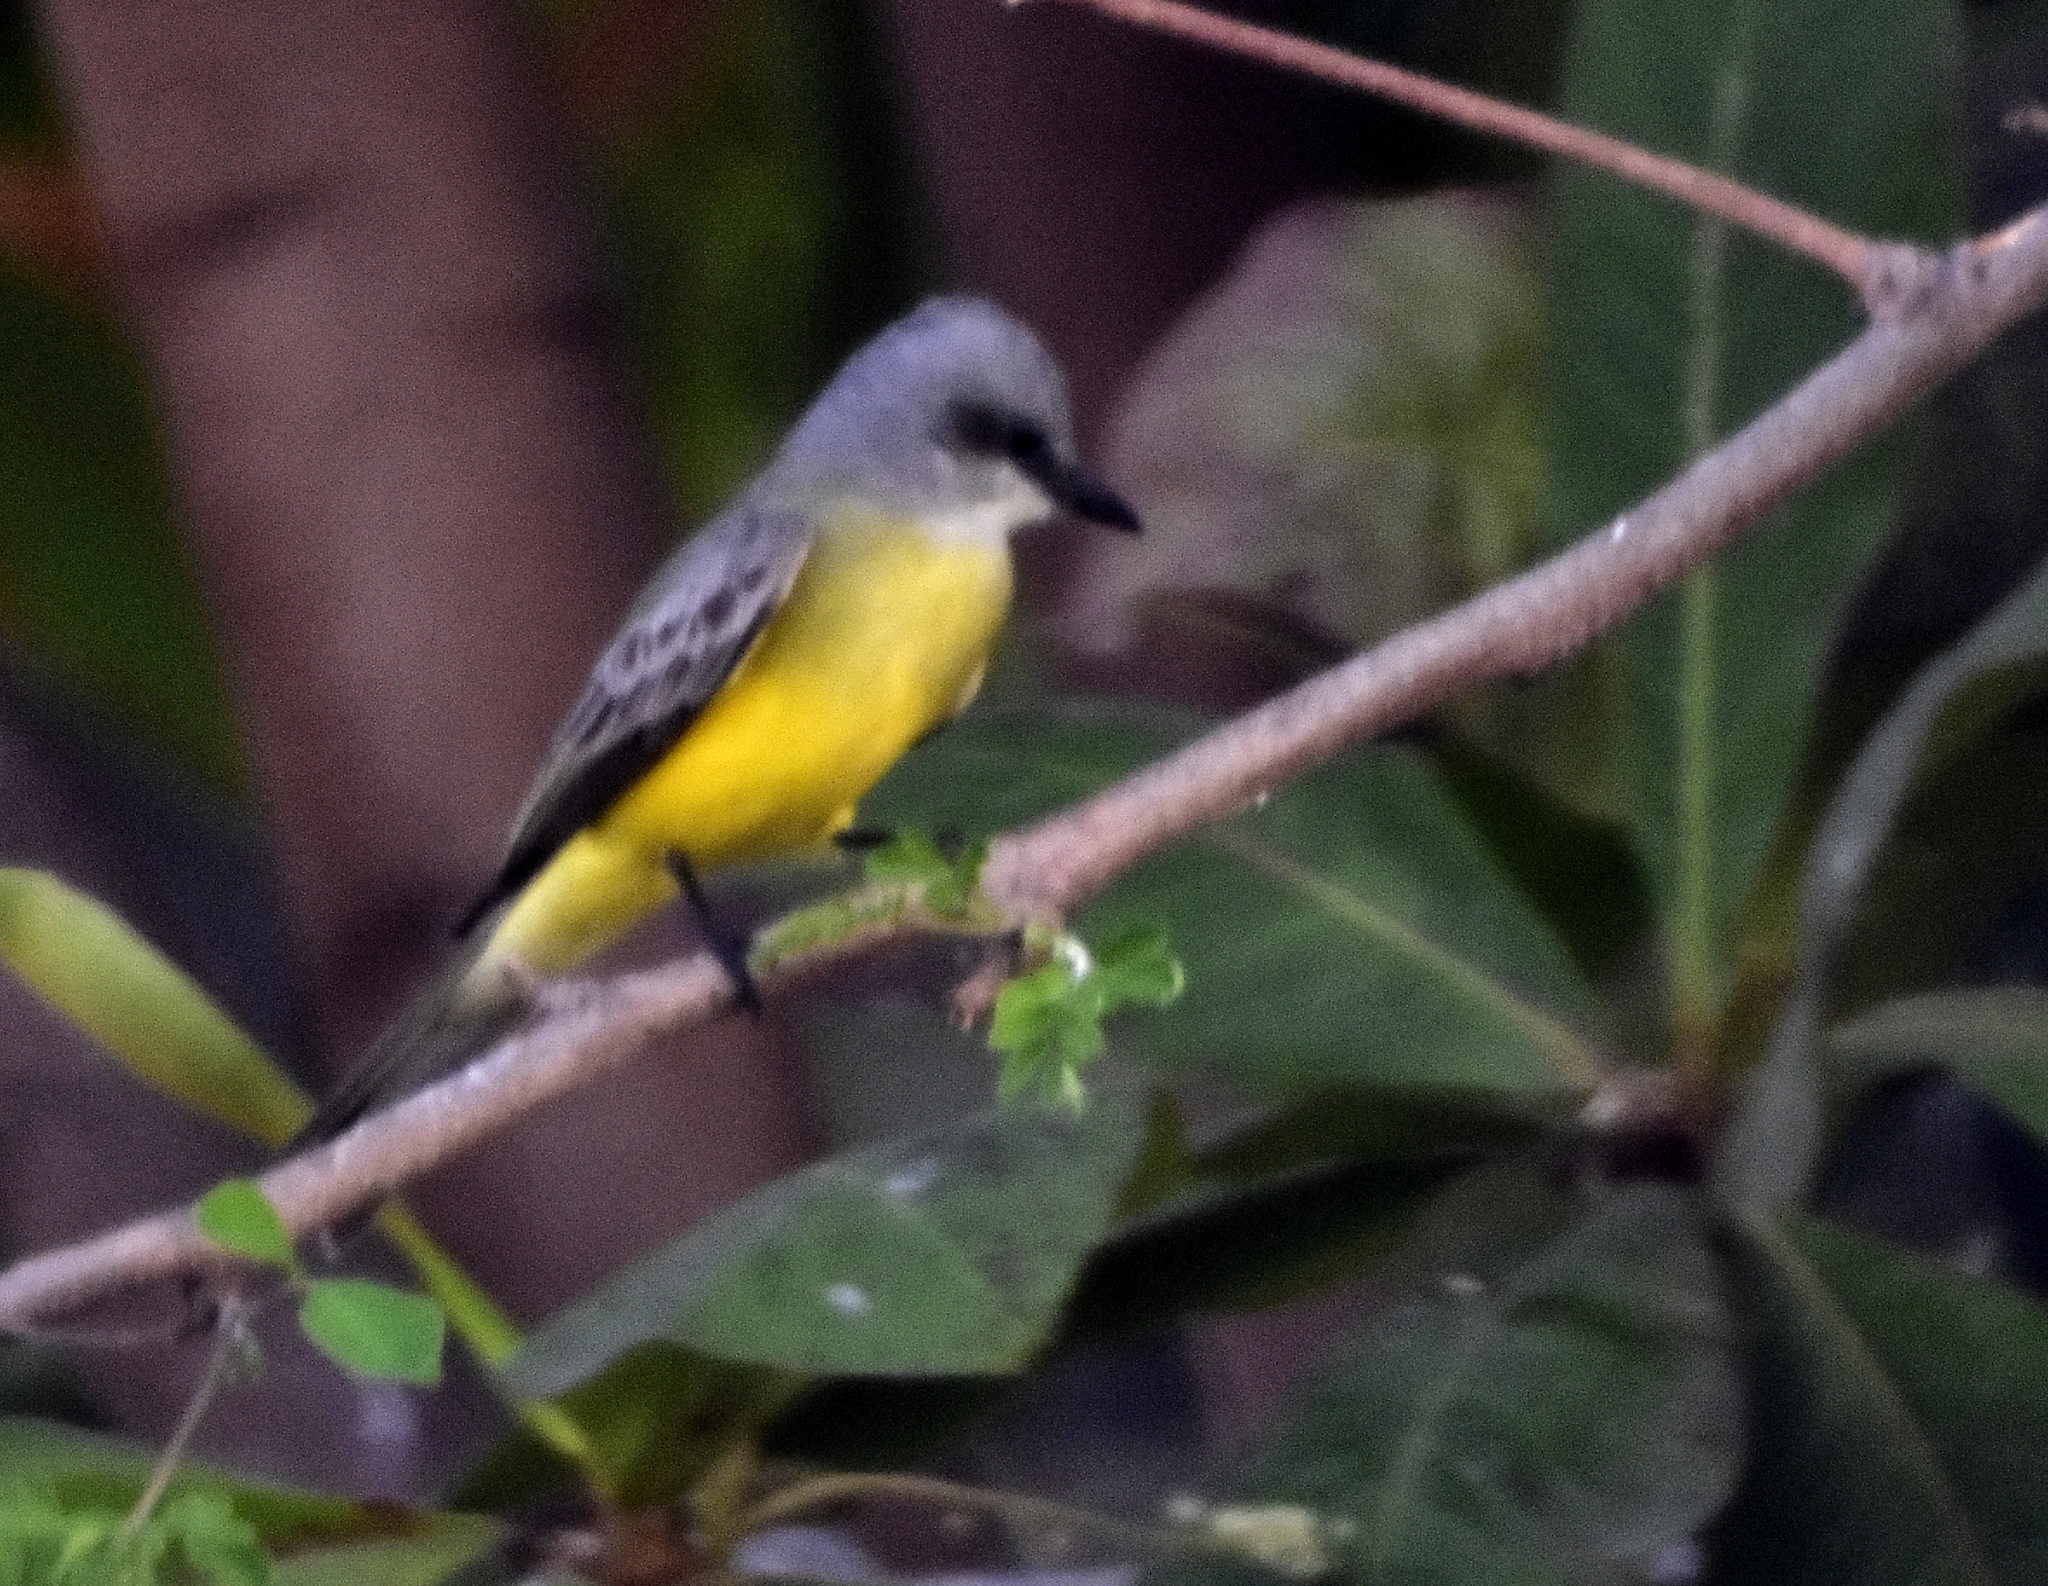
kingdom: Animalia
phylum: Chordata
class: Aves
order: Passeriformes
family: Tyrannidae
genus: Tyrannus
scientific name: Tyrannus melancholicus
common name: Tropical kingbird
